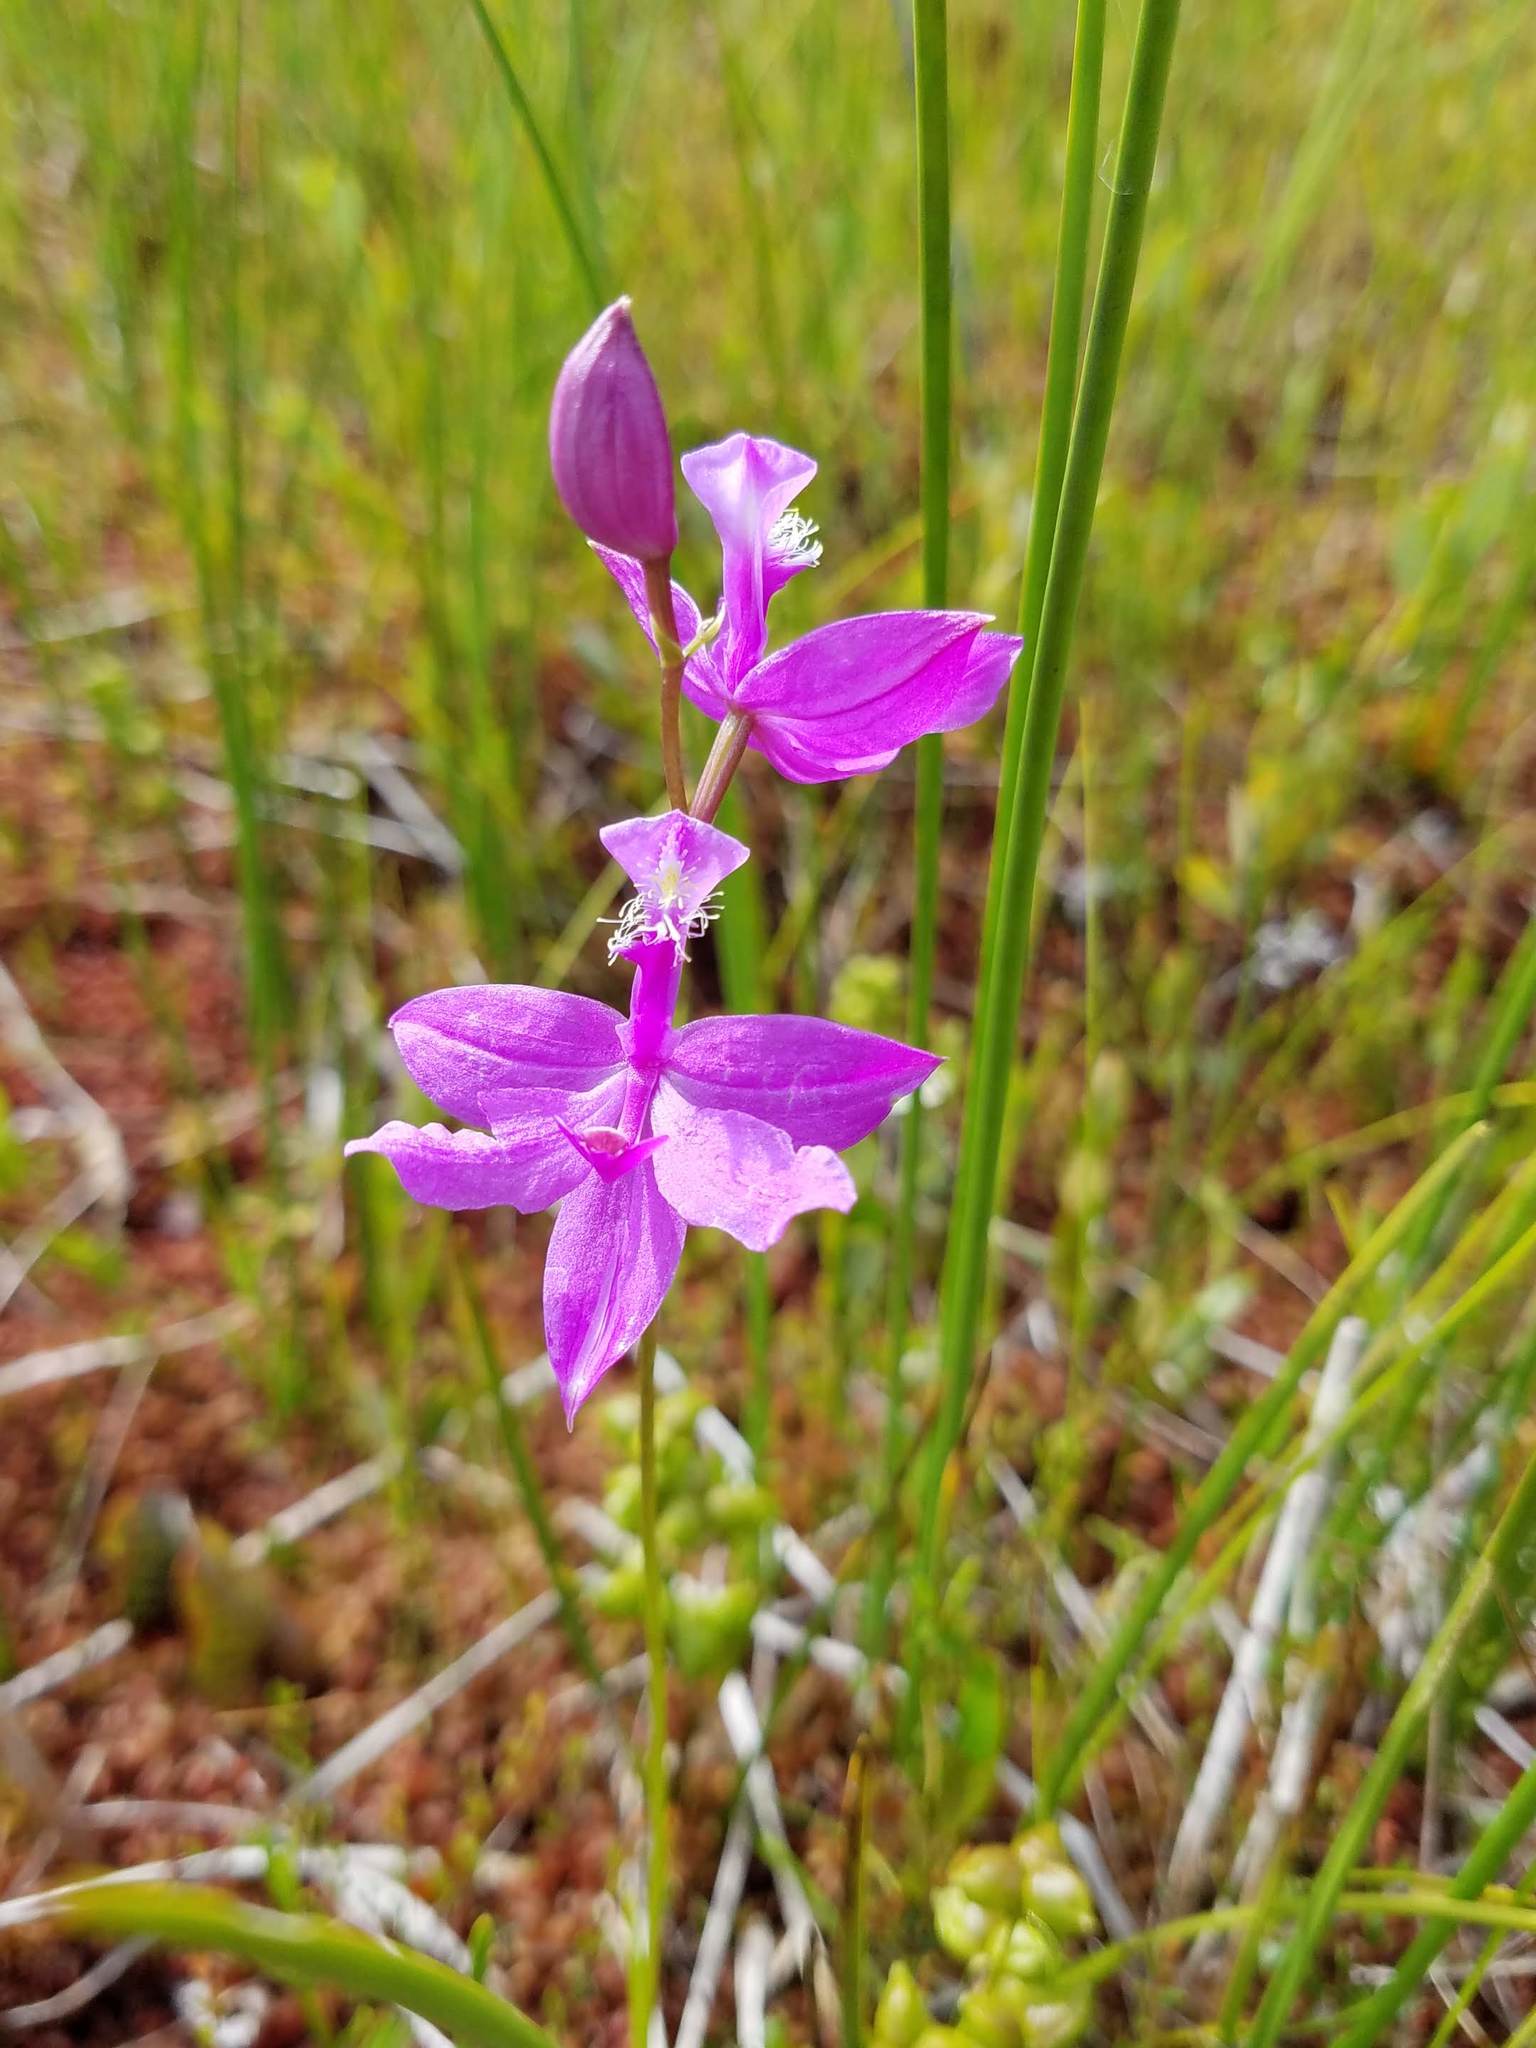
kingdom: Plantae
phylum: Tracheophyta
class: Liliopsida
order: Asparagales
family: Orchidaceae
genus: Calopogon
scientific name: Calopogon tuberosus
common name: Grass-pink
